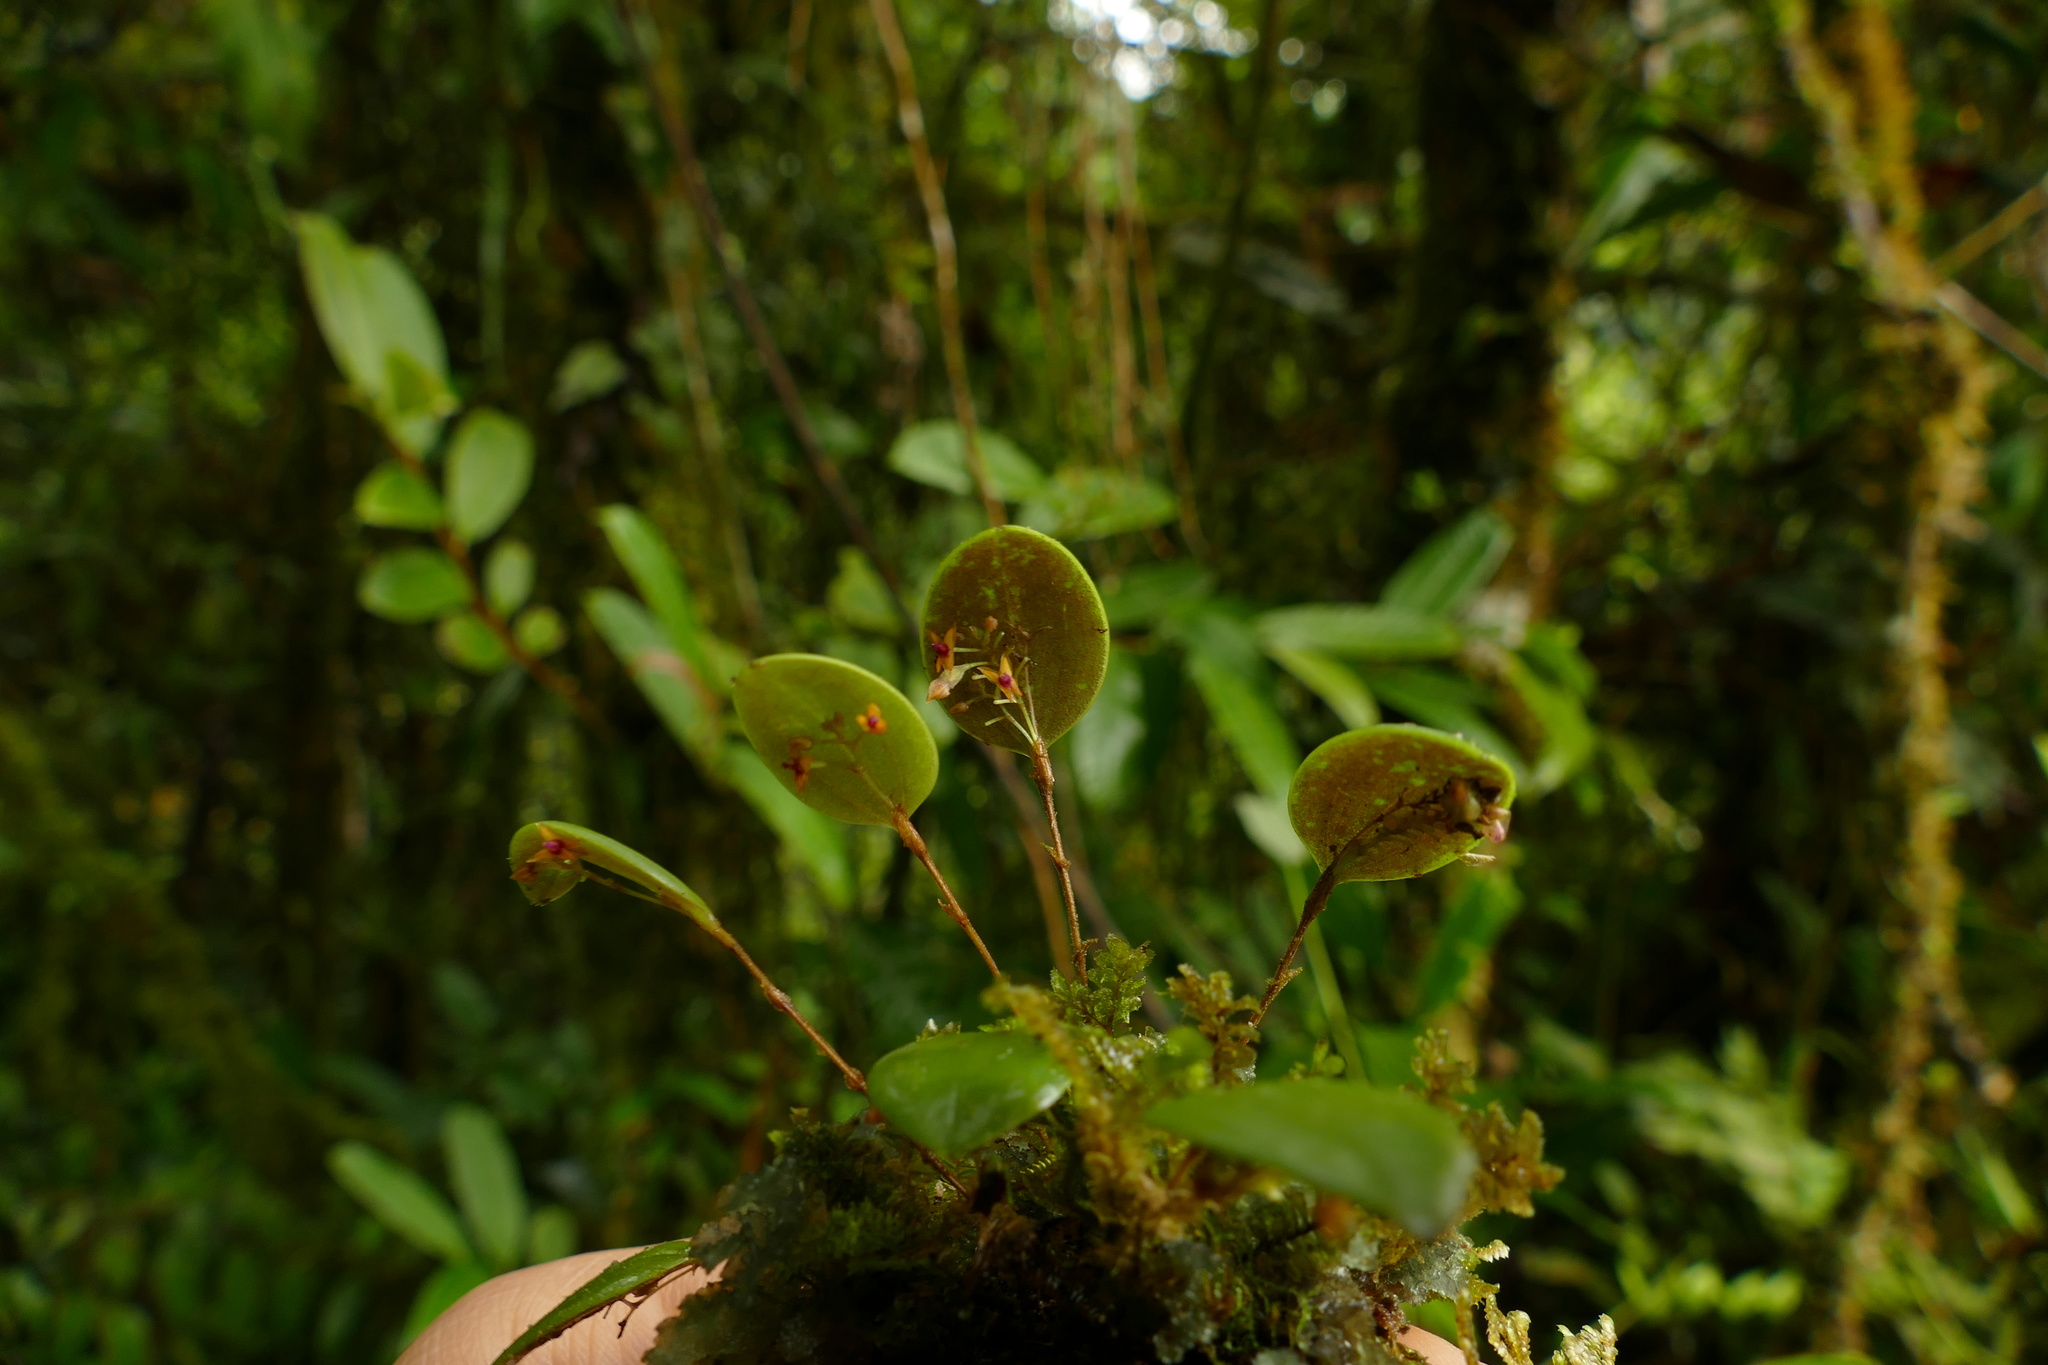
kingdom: Plantae
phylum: Tracheophyta
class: Liliopsida
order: Asparagales
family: Orchidaceae
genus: Lepanthes
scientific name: Lepanthes eros
